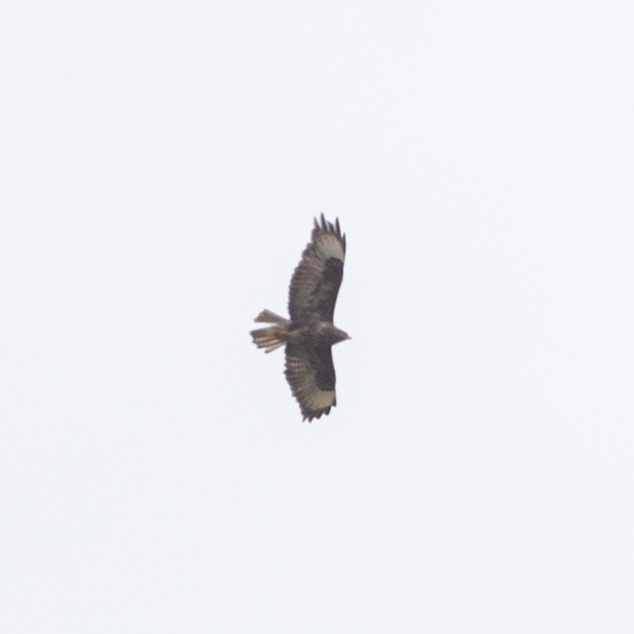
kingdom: Animalia
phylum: Chordata
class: Aves
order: Accipitriformes
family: Accipitridae
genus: Buteo
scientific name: Buteo buteo
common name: Common buzzard
